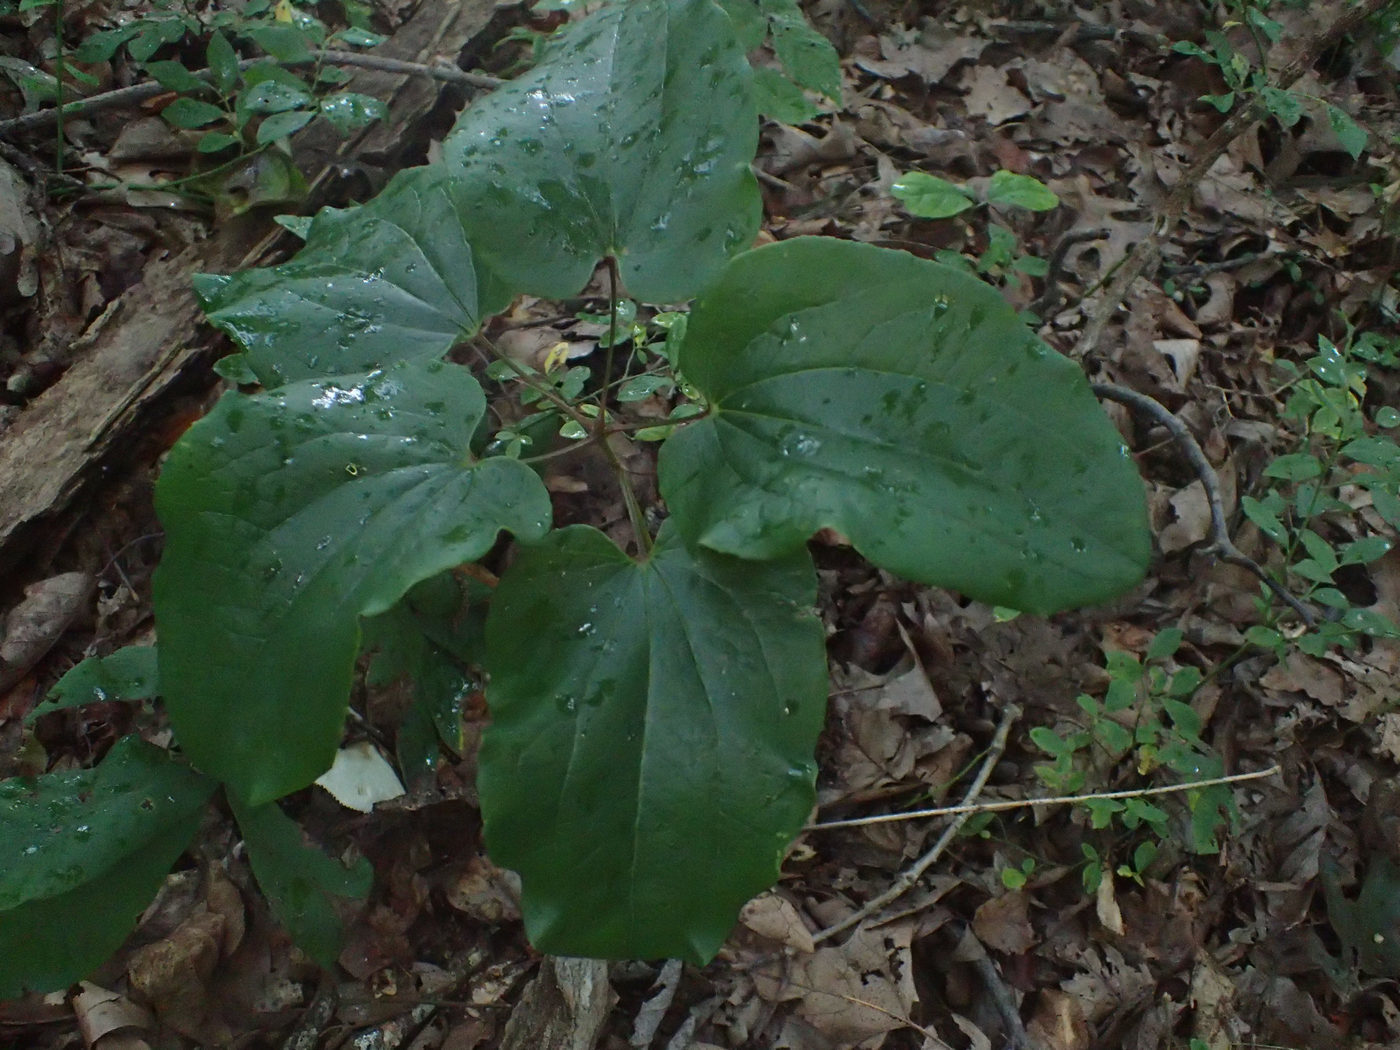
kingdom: Plantae
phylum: Tracheophyta
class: Liliopsida
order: Liliales
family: Smilacaceae
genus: Smilax
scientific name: Smilax biltmoreana
